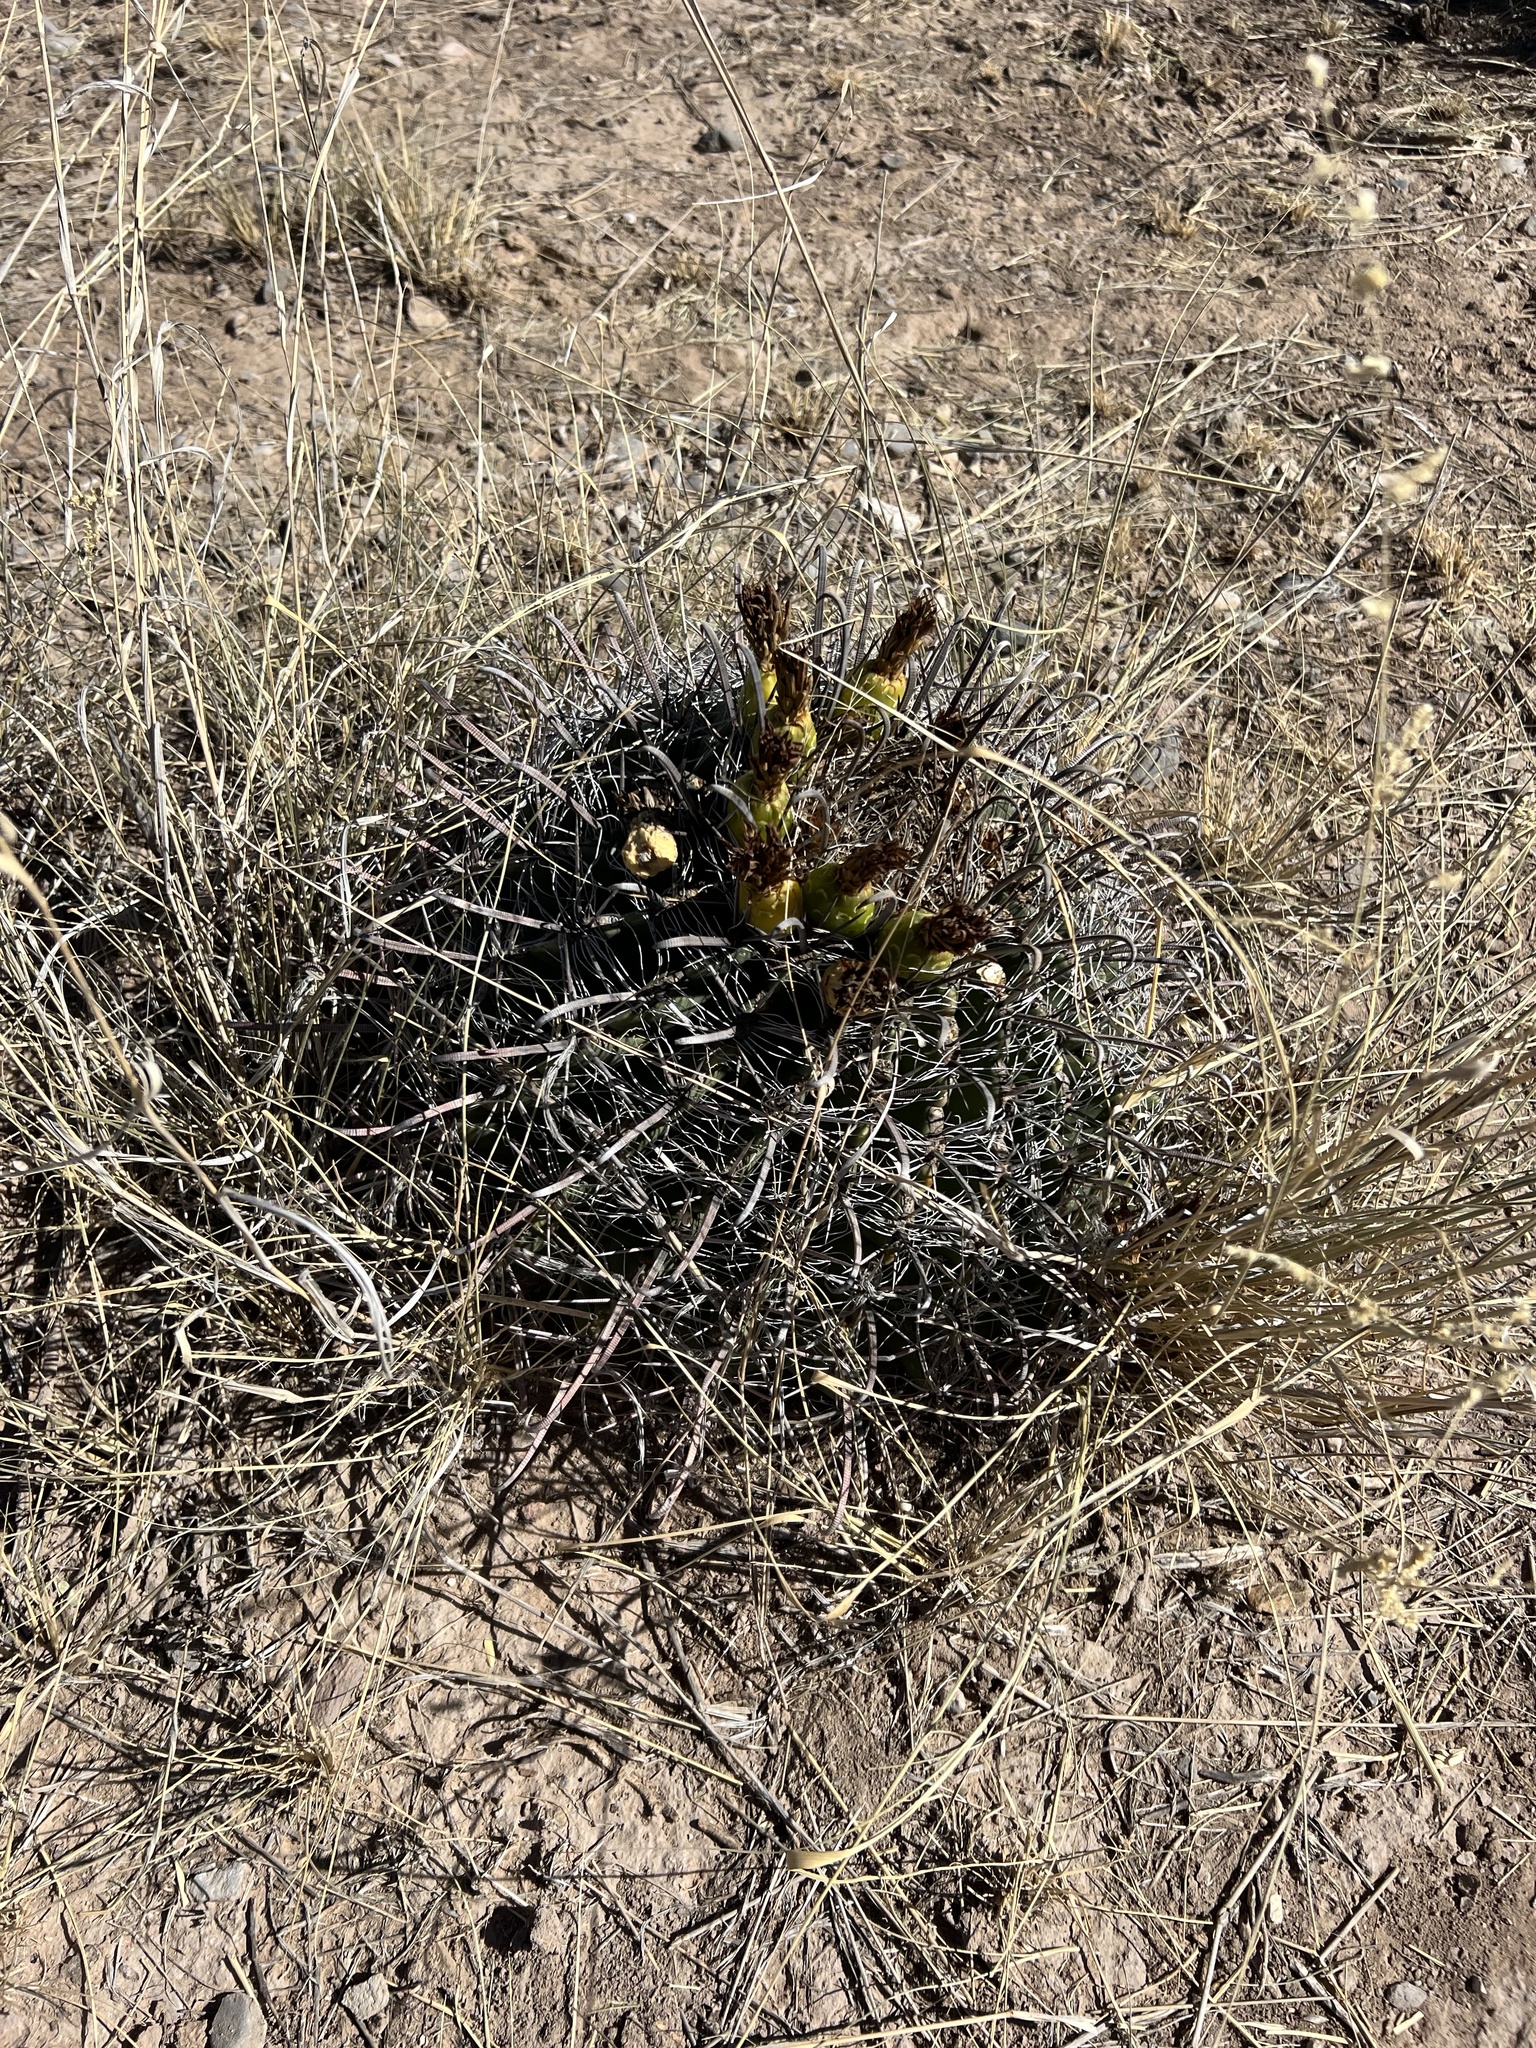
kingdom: Plantae
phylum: Tracheophyta
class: Magnoliopsida
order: Caryophyllales
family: Cactaceae
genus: Ferocactus
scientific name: Ferocactus wislizeni
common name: Candy barrel cactus
